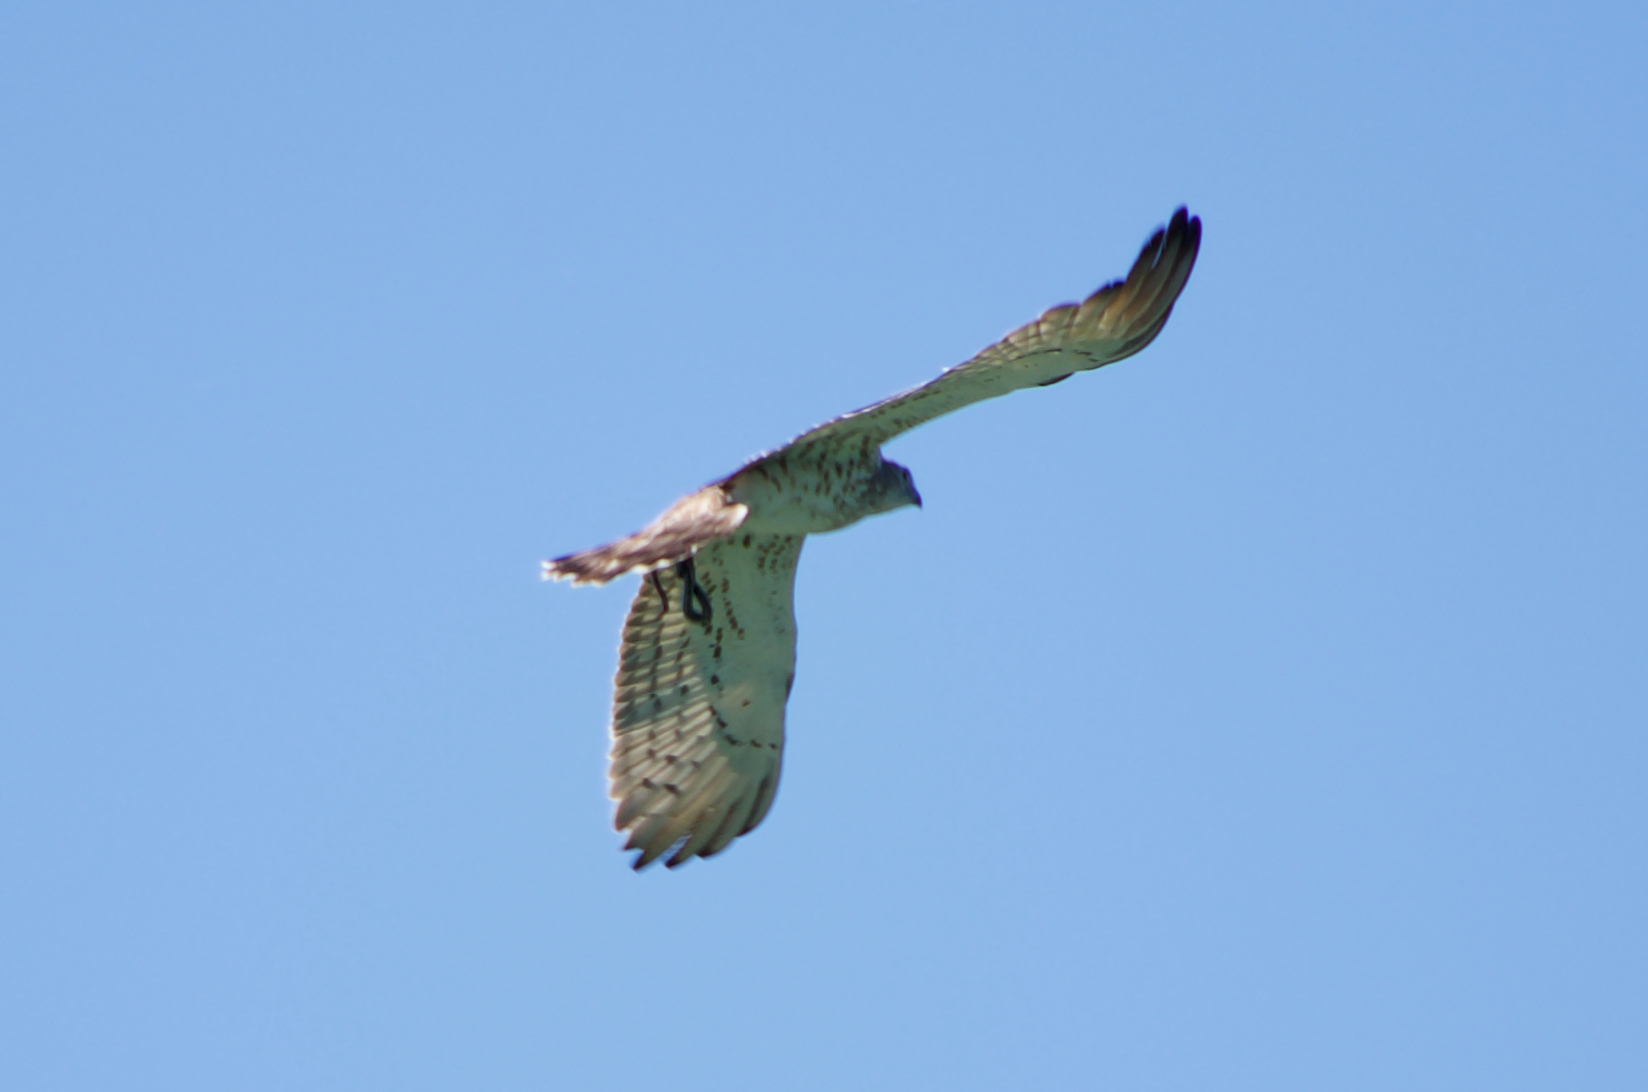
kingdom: Animalia
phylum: Chordata
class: Aves
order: Accipitriformes
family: Accipitridae
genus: Circaetus
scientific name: Circaetus gallicus
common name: Short-toed snake eagle
